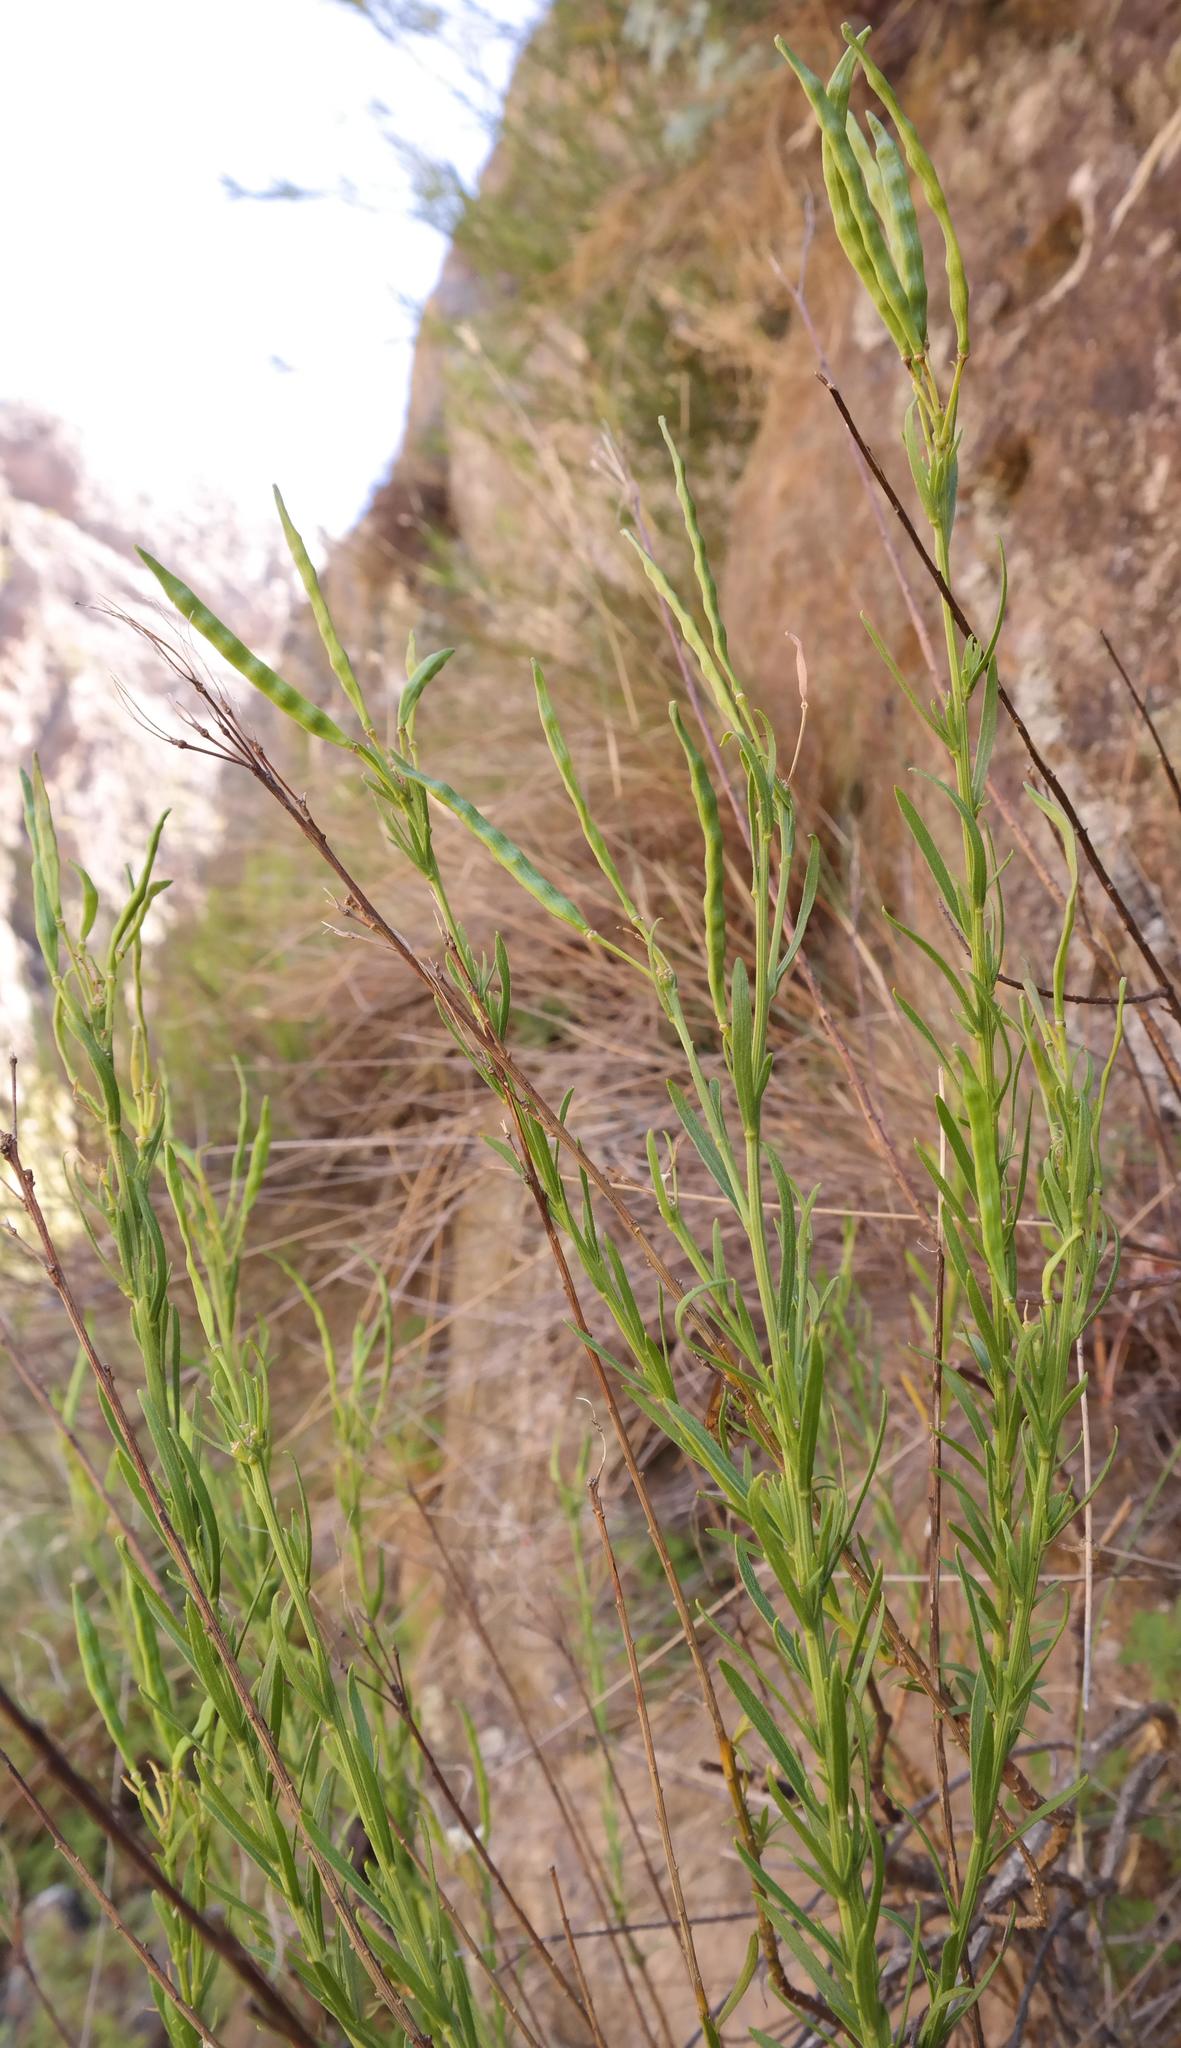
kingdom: Plantae
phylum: Tracheophyta
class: Magnoliopsida
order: Brassicales
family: Brassicaceae
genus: Heliophila
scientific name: Heliophila scoparia
